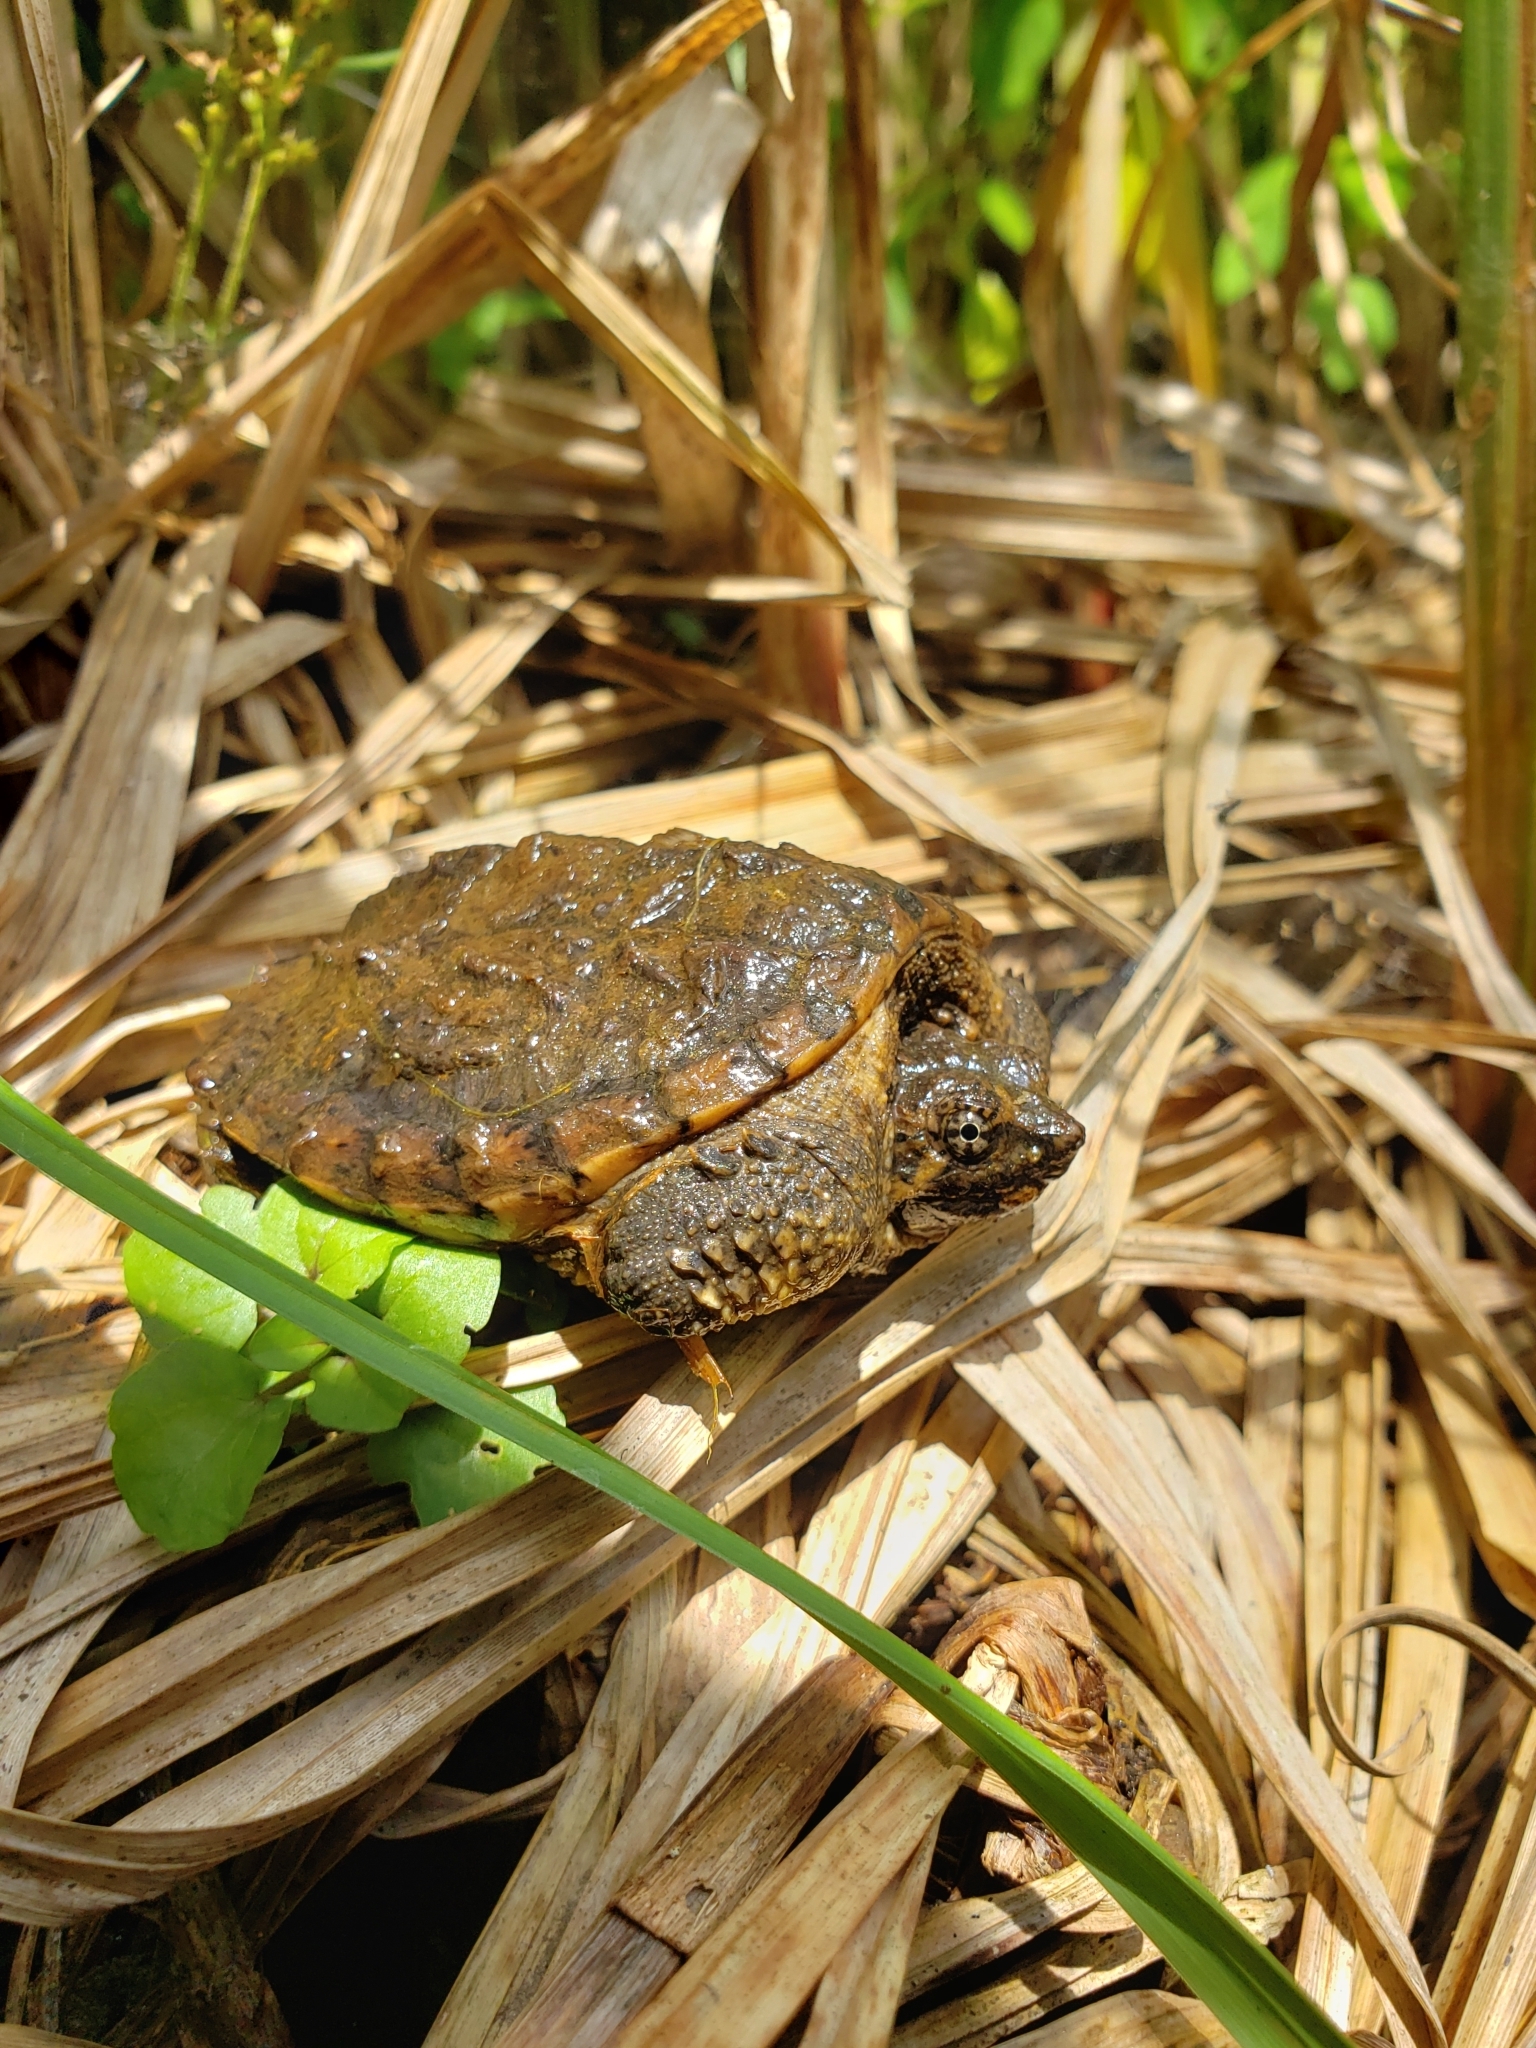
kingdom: Animalia
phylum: Chordata
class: Testudines
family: Chelydridae
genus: Chelydra
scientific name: Chelydra serpentina
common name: Common snapping turtle
